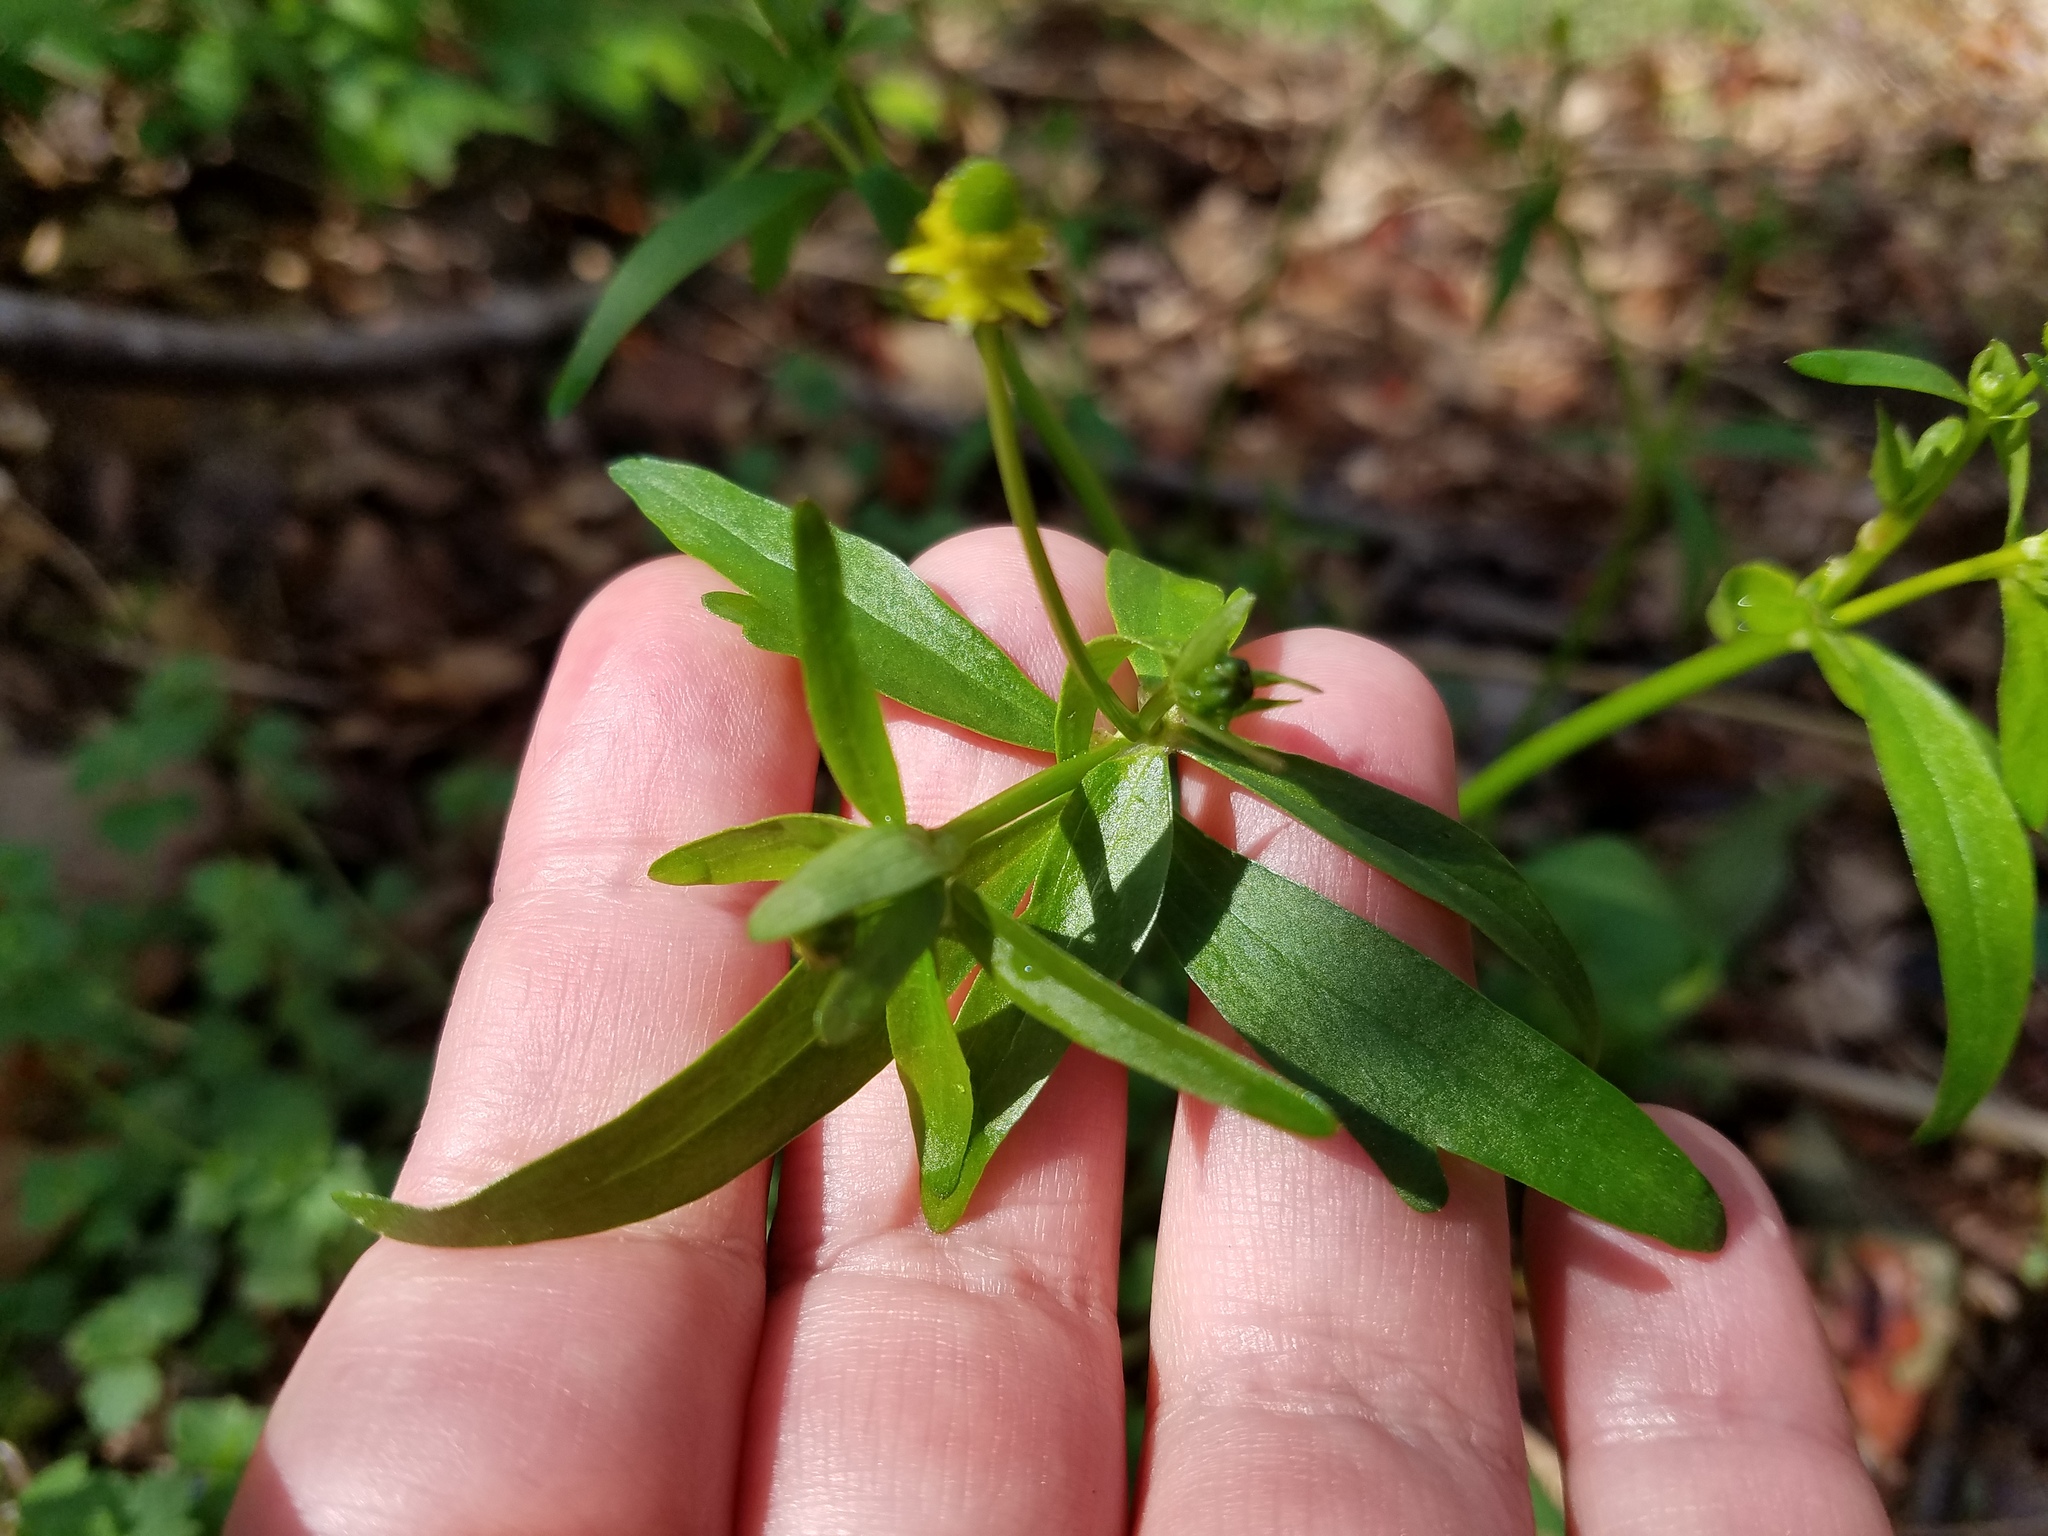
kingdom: Plantae
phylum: Tracheophyta
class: Magnoliopsida
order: Ranunculales
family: Ranunculaceae
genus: Ranunculus
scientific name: Ranunculus abortivus
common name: Early wood buttercup
